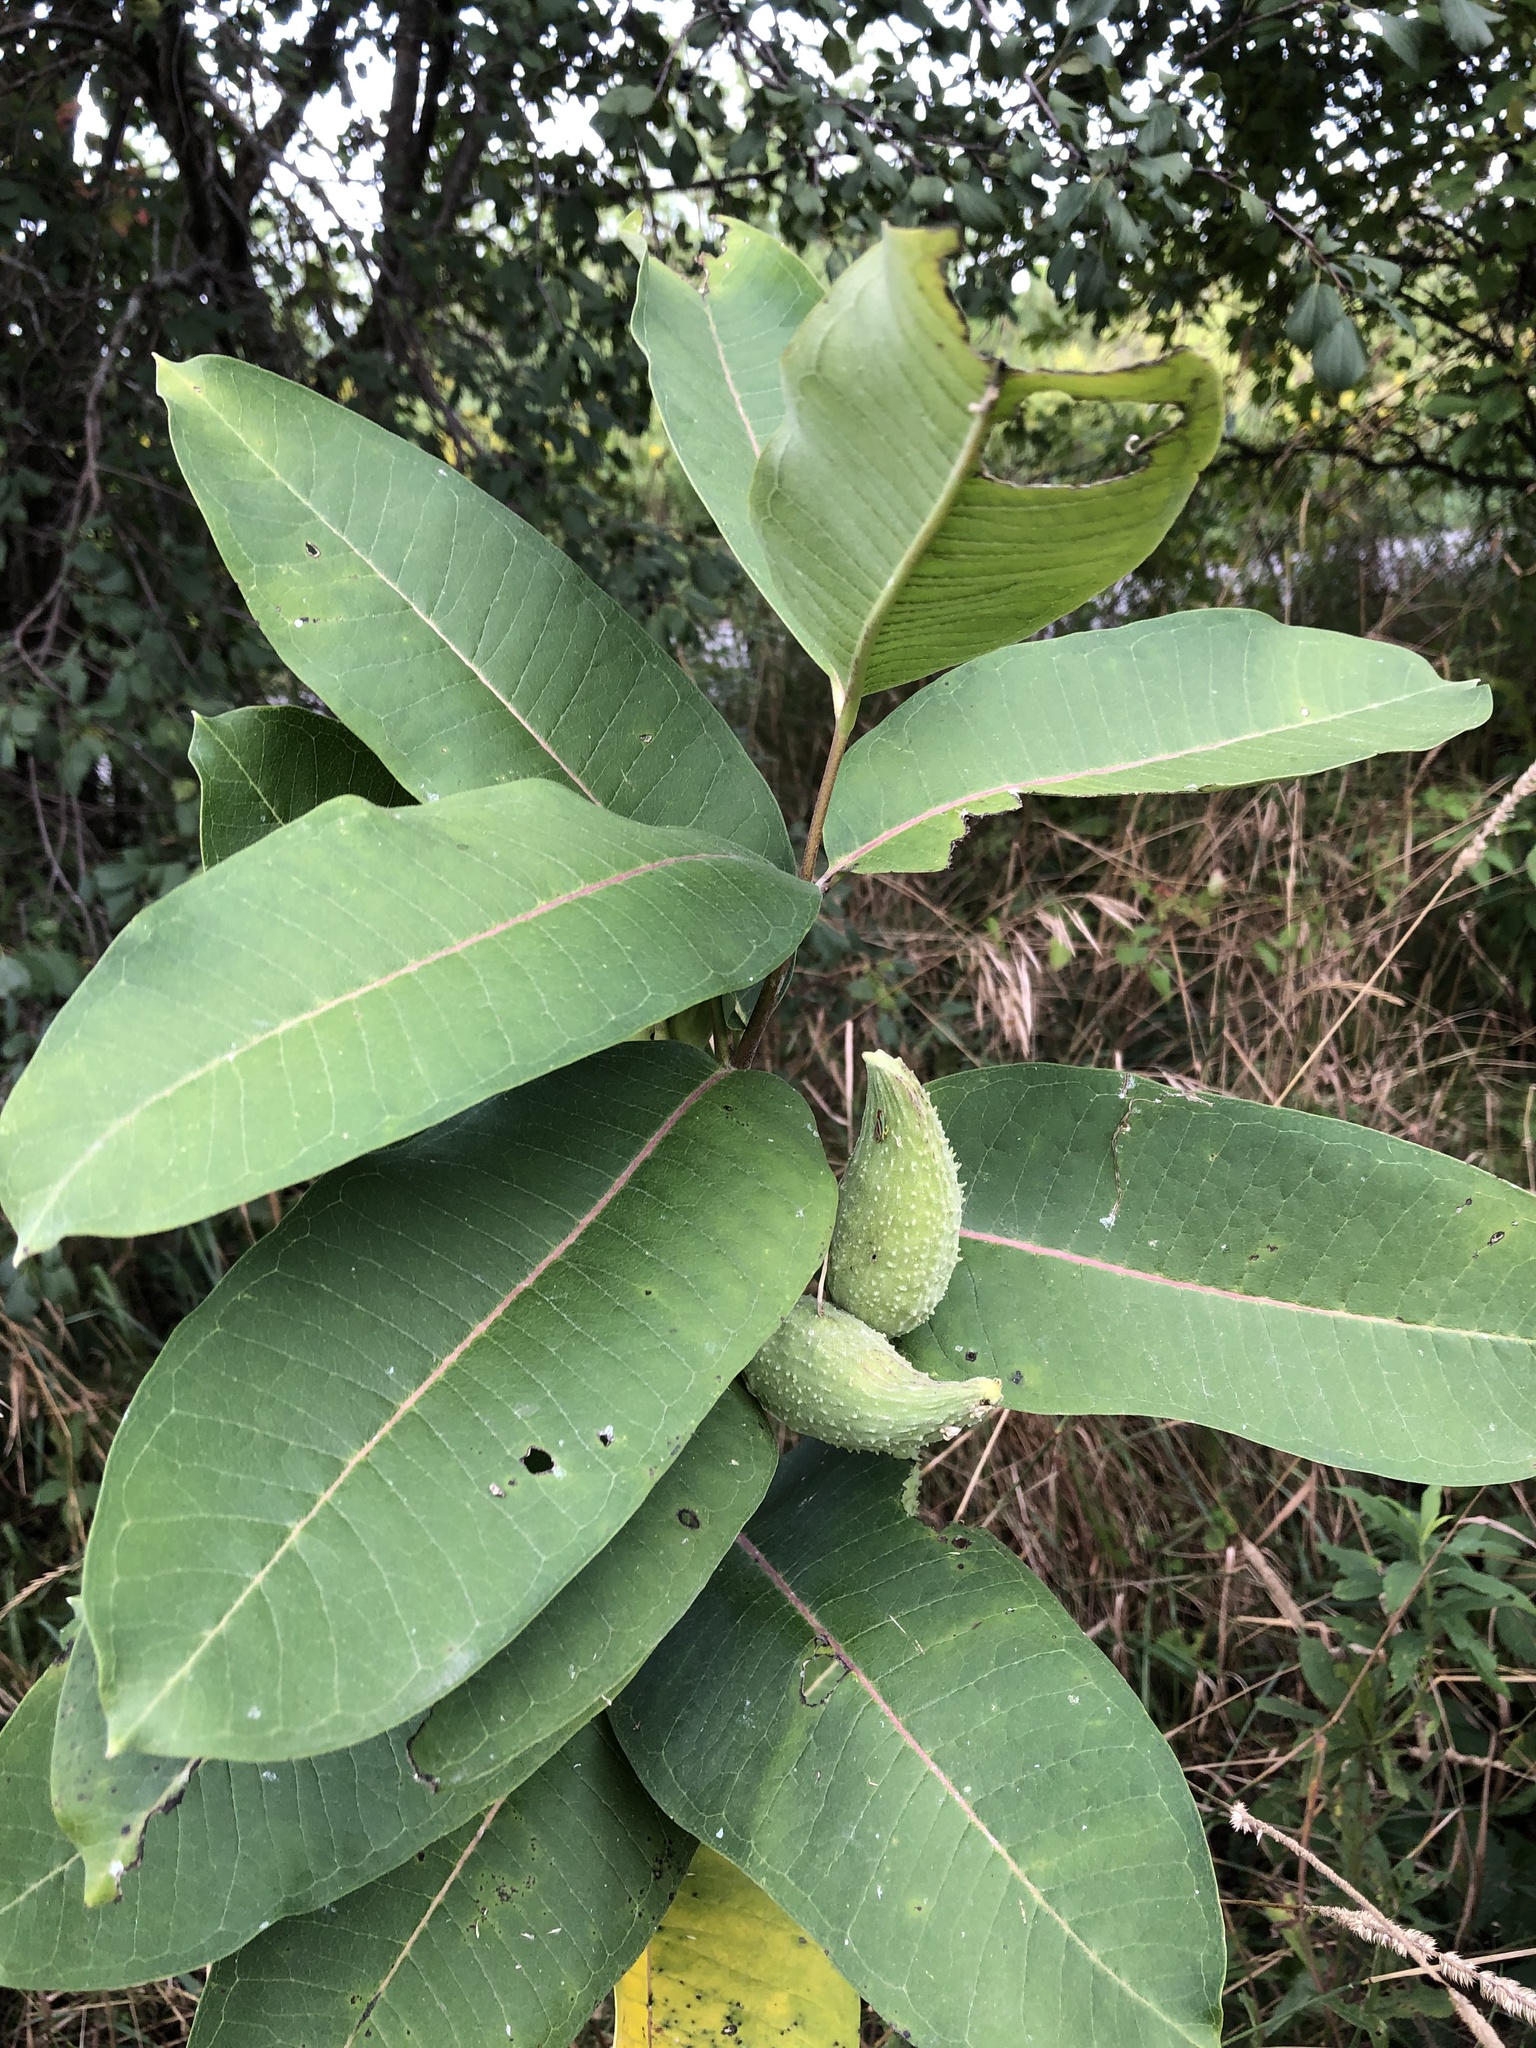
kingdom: Plantae
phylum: Tracheophyta
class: Magnoliopsida
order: Gentianales
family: Apocynaceae
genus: Asclepias
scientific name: Asclepias syriaca
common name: Common milkweed
